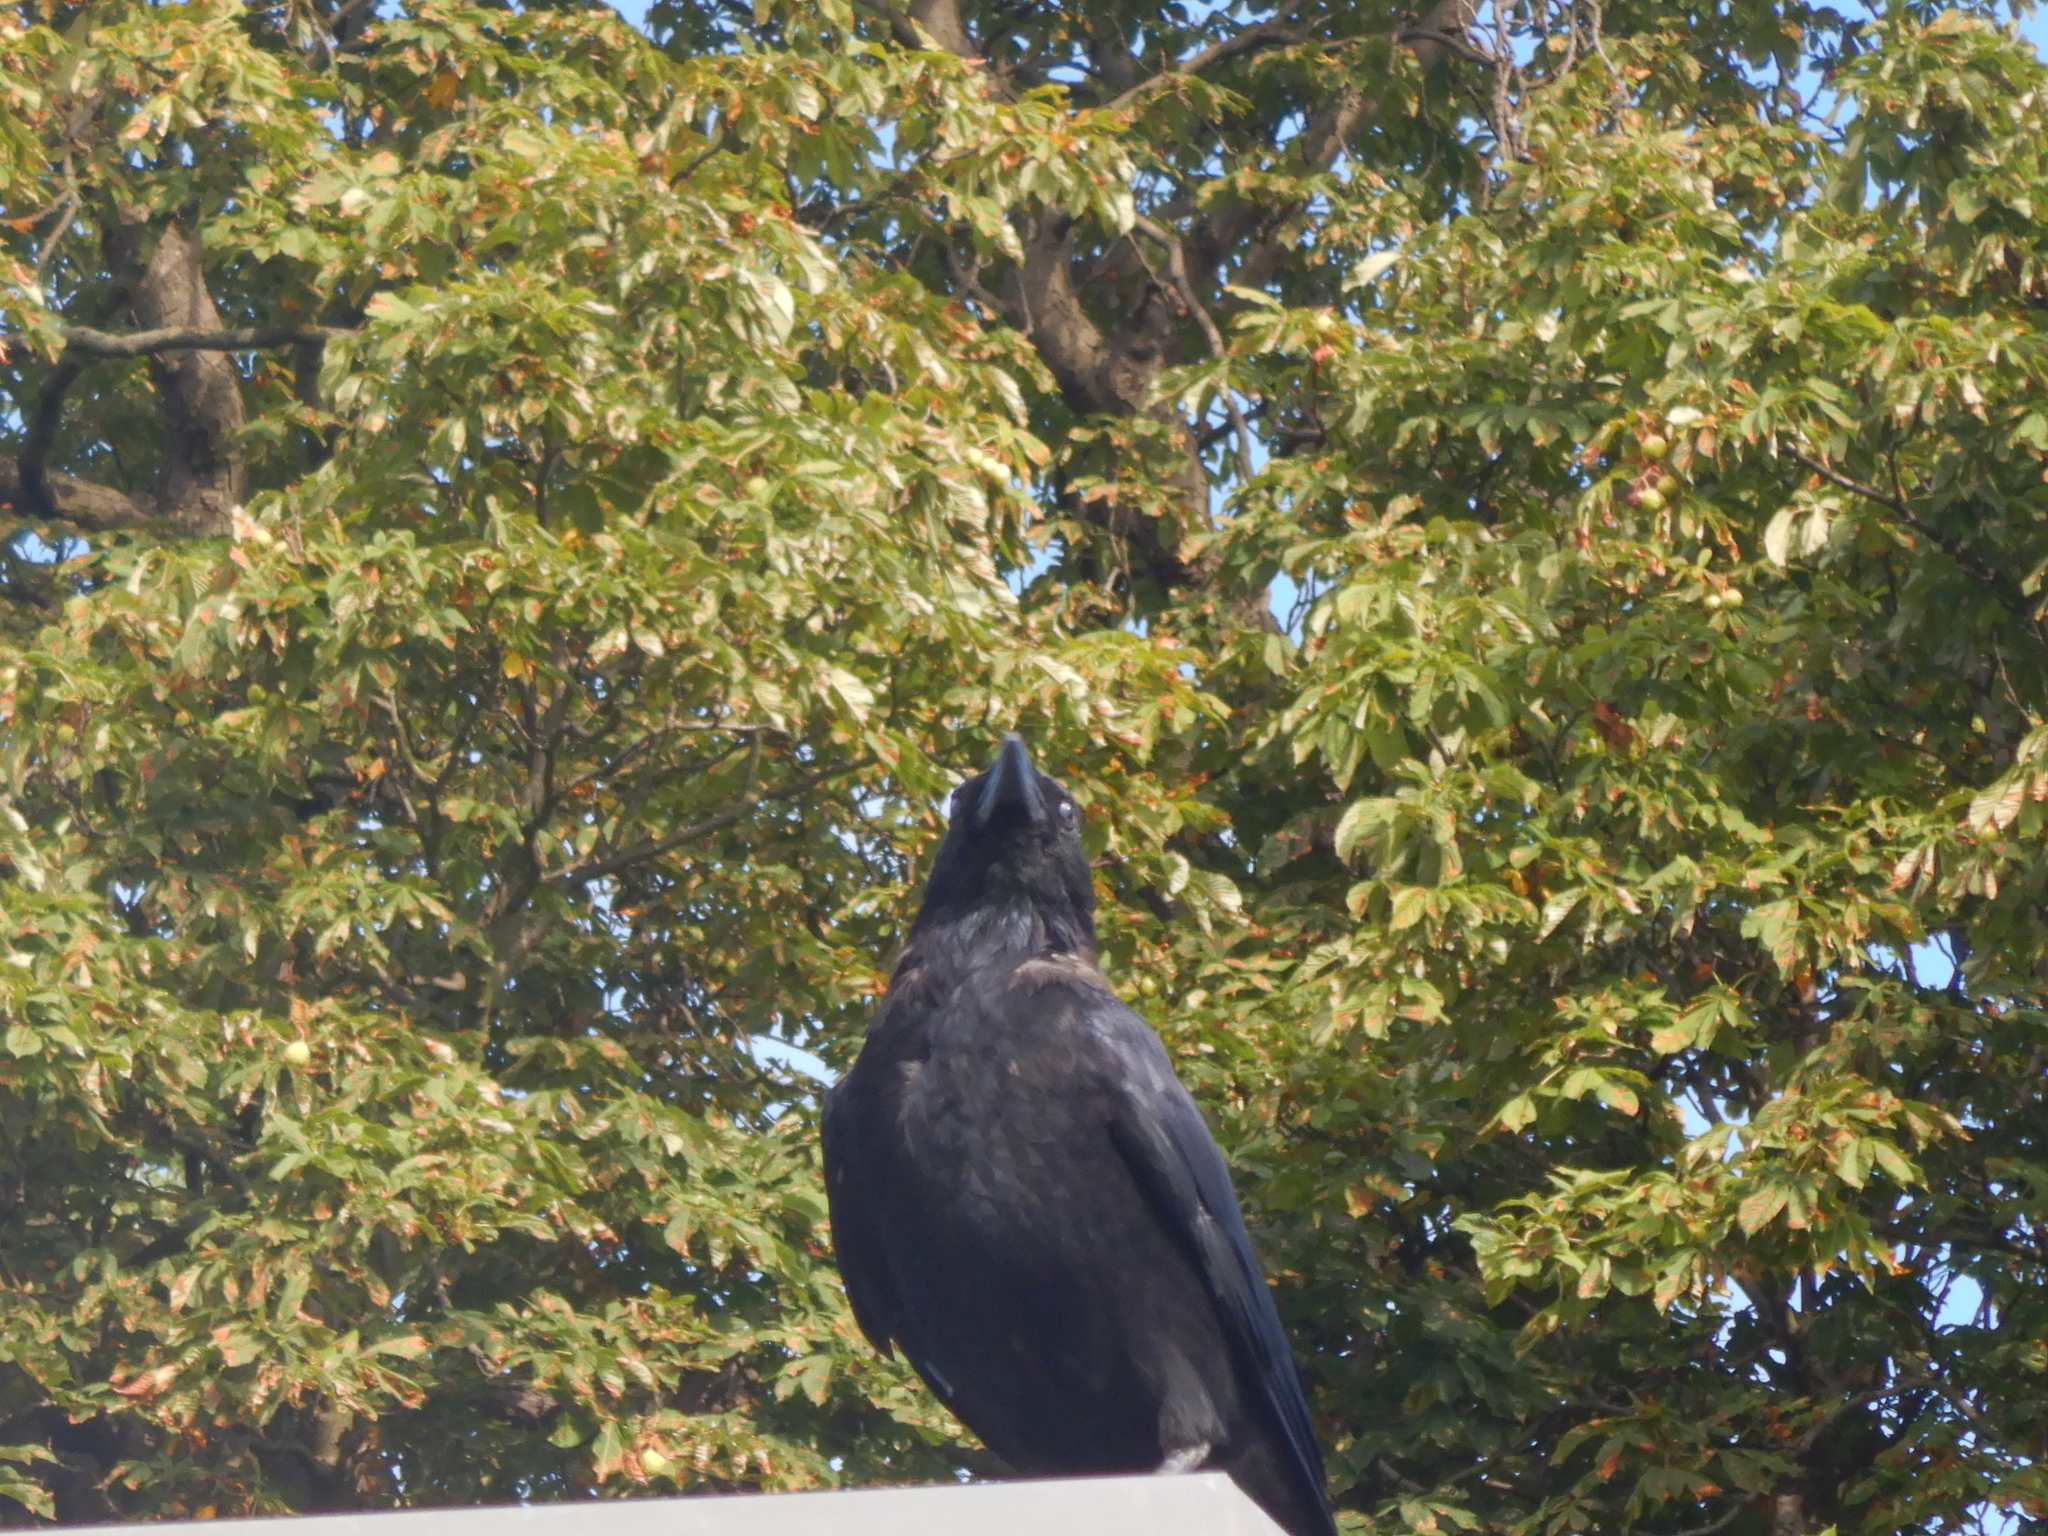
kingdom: Animalia
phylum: Chordata
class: Aves
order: Passeriformes
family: Corvidae
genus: Corvus
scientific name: Corvus corone
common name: Carrion crow
